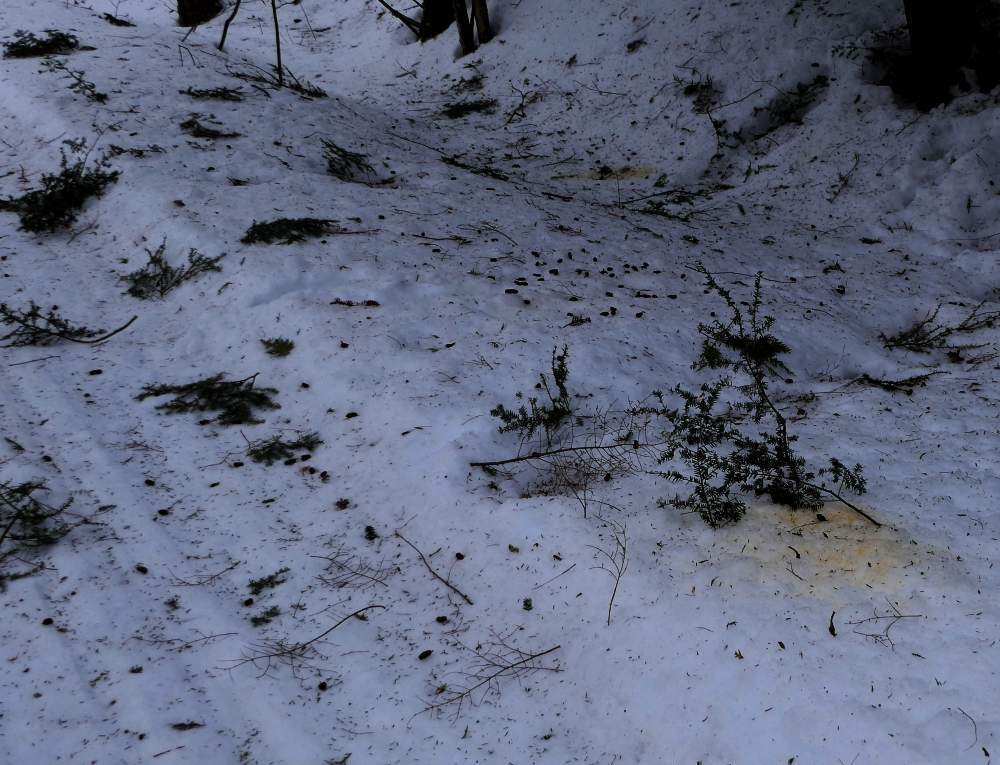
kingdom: Animalia
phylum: Chordata
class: Mammalia
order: Rodentia
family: Erethizontidae
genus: Erethizon
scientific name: Erethizon dorsatus
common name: North american porcupine
